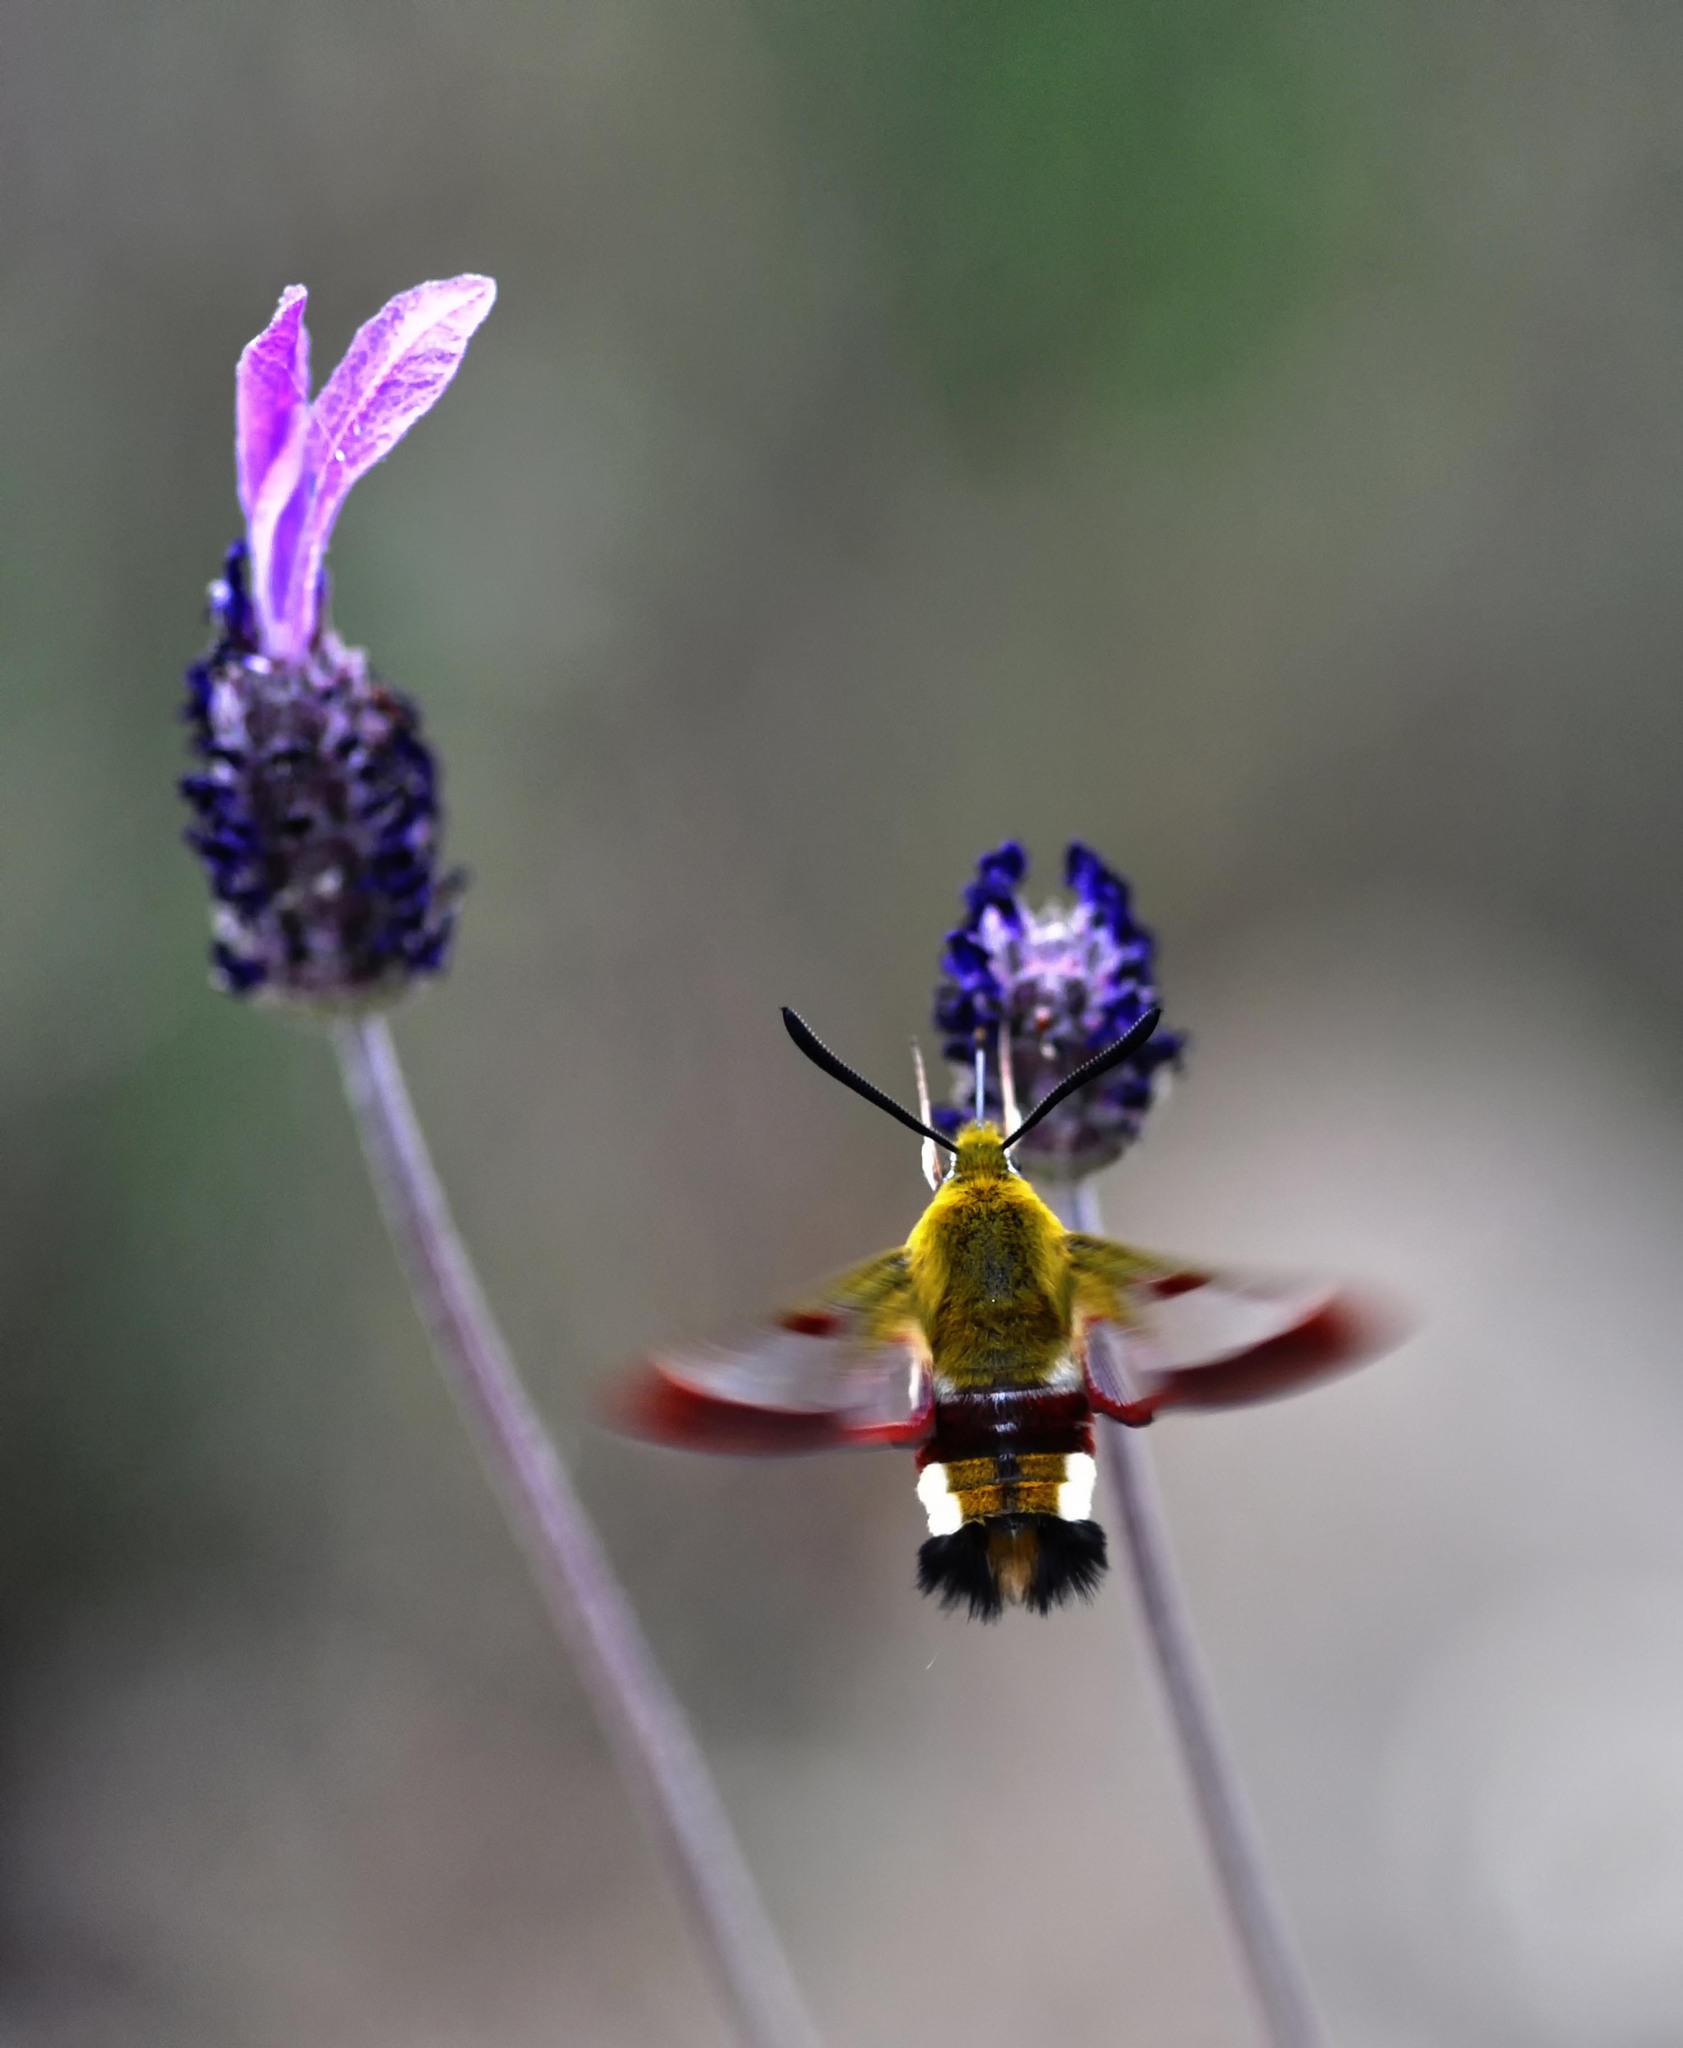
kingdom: Animalia
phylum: Arthropoda
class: Insecta
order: Lepidoptera
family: Sphingidae
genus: Hemaris
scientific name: Hemaris fuciformis
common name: Broad-bordered bee hawk-moth
